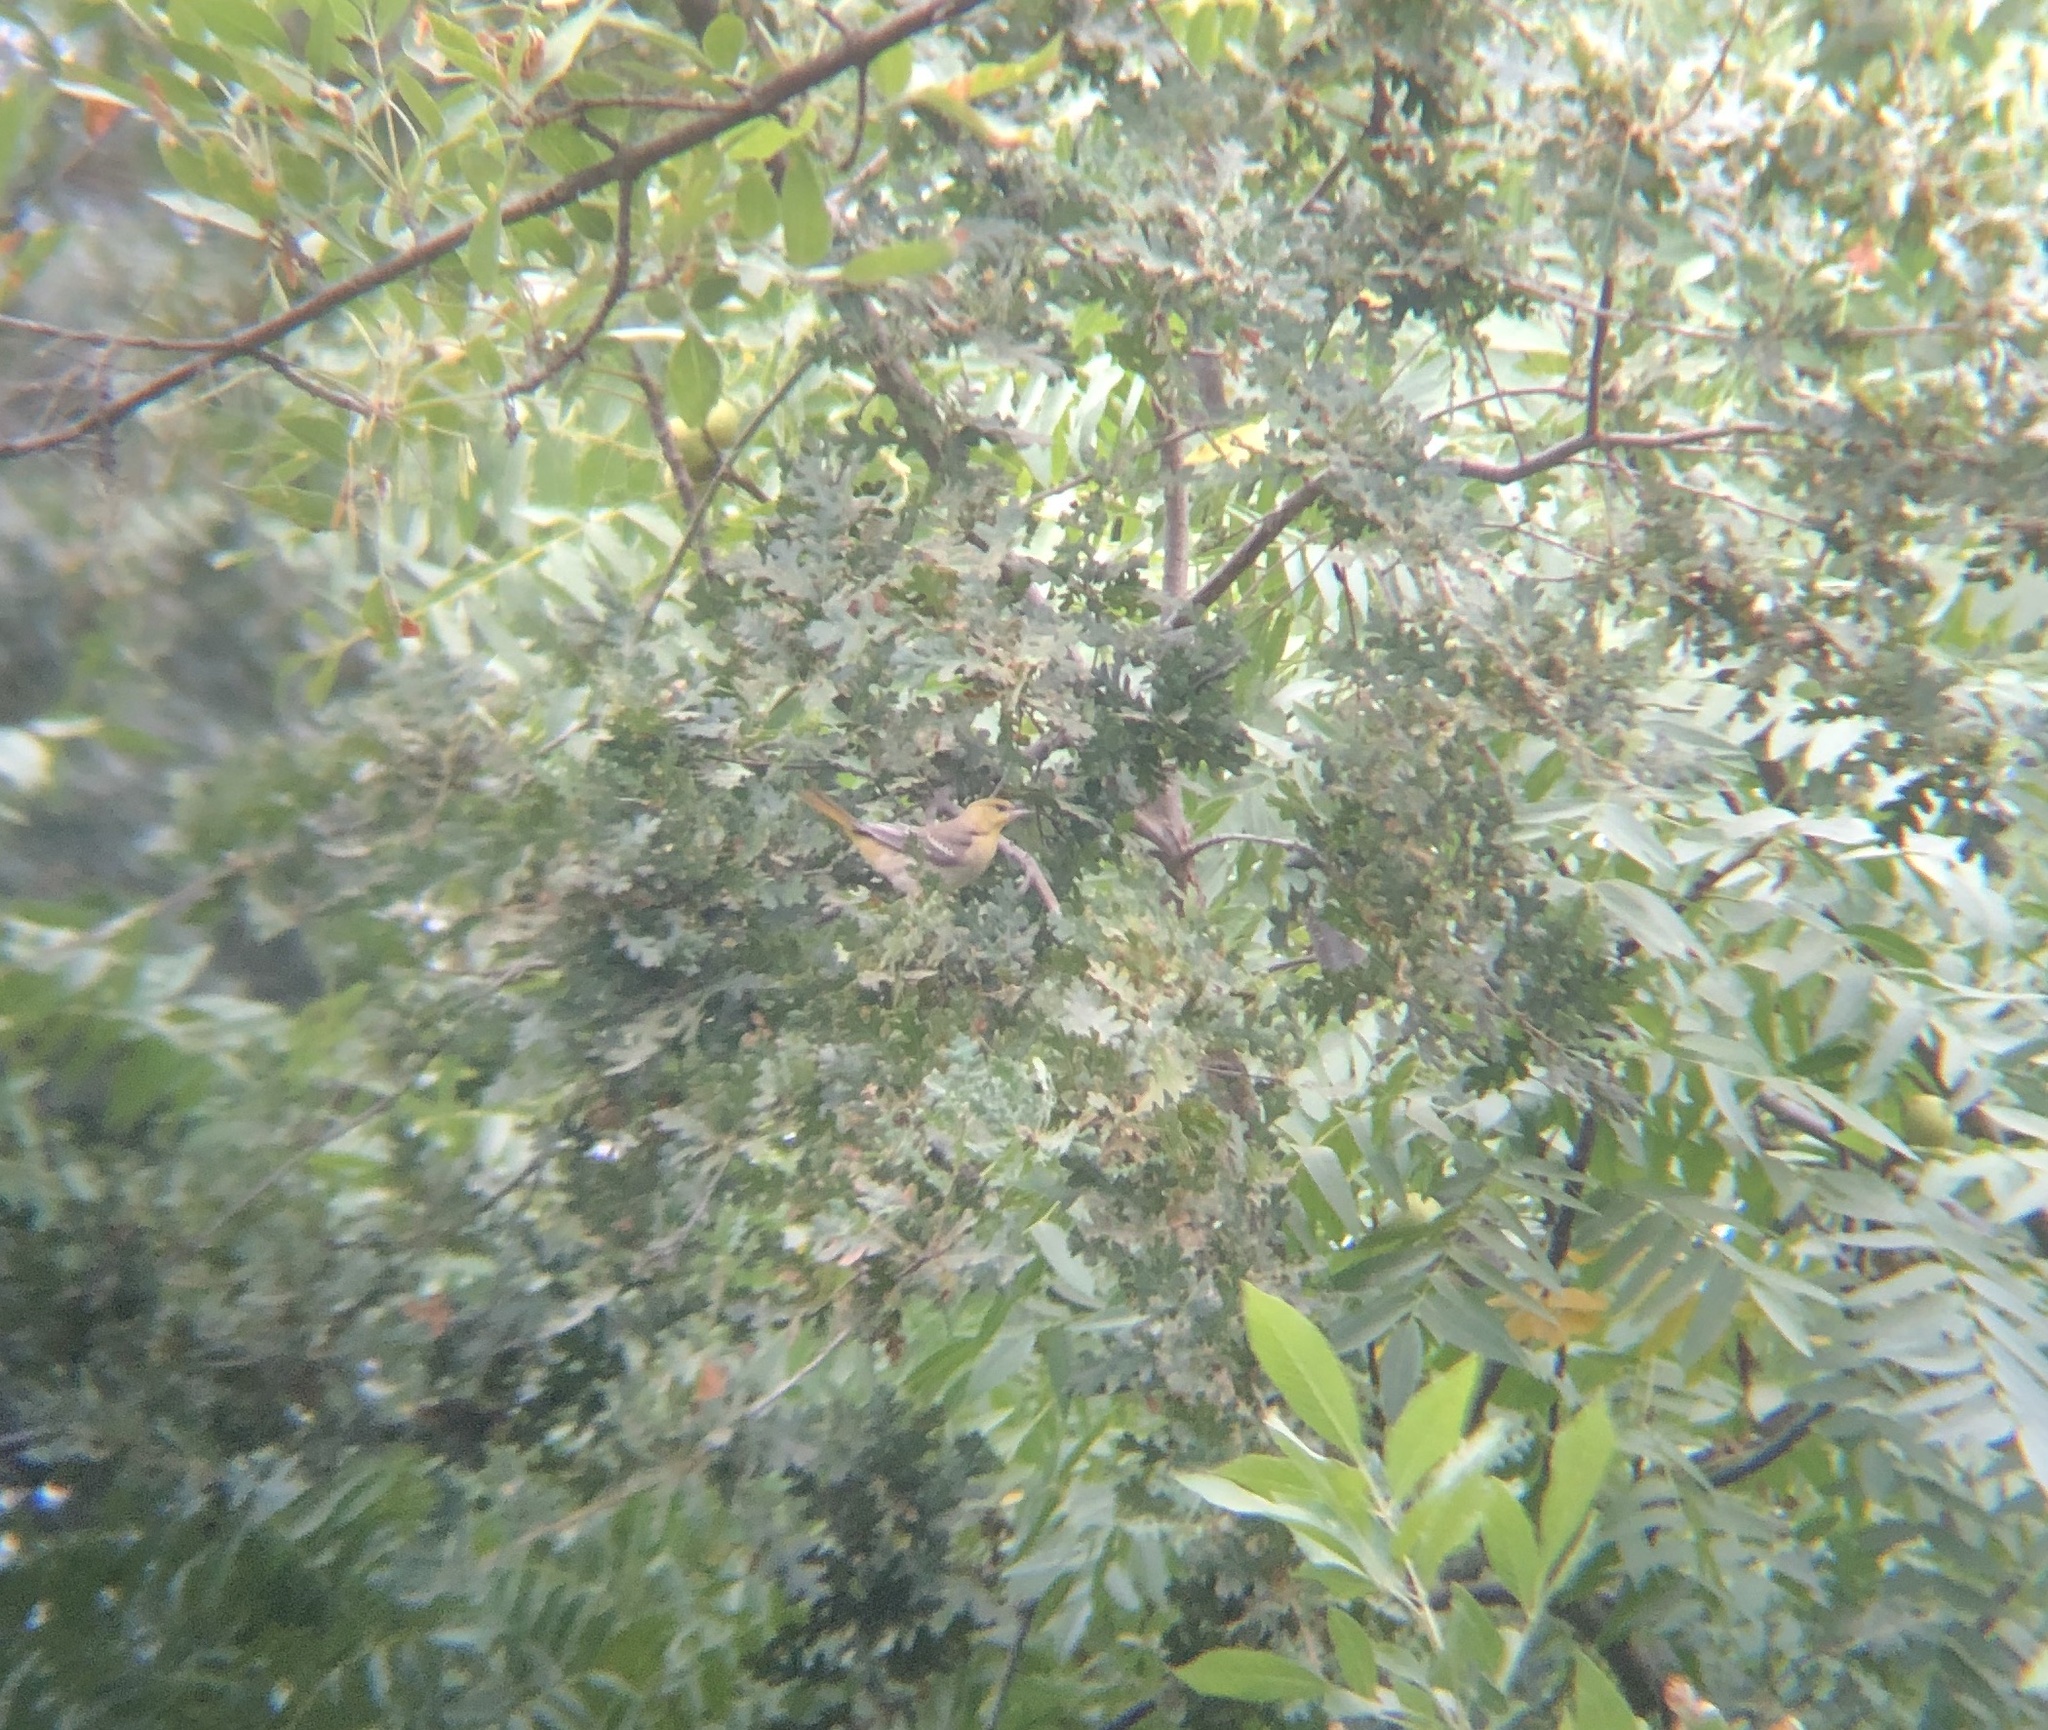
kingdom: Animalia
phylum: Chordata
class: Aves
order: Passeriformes
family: Icteridae
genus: Icterus
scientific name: Icterus bullockii
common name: Bullock's oriole
